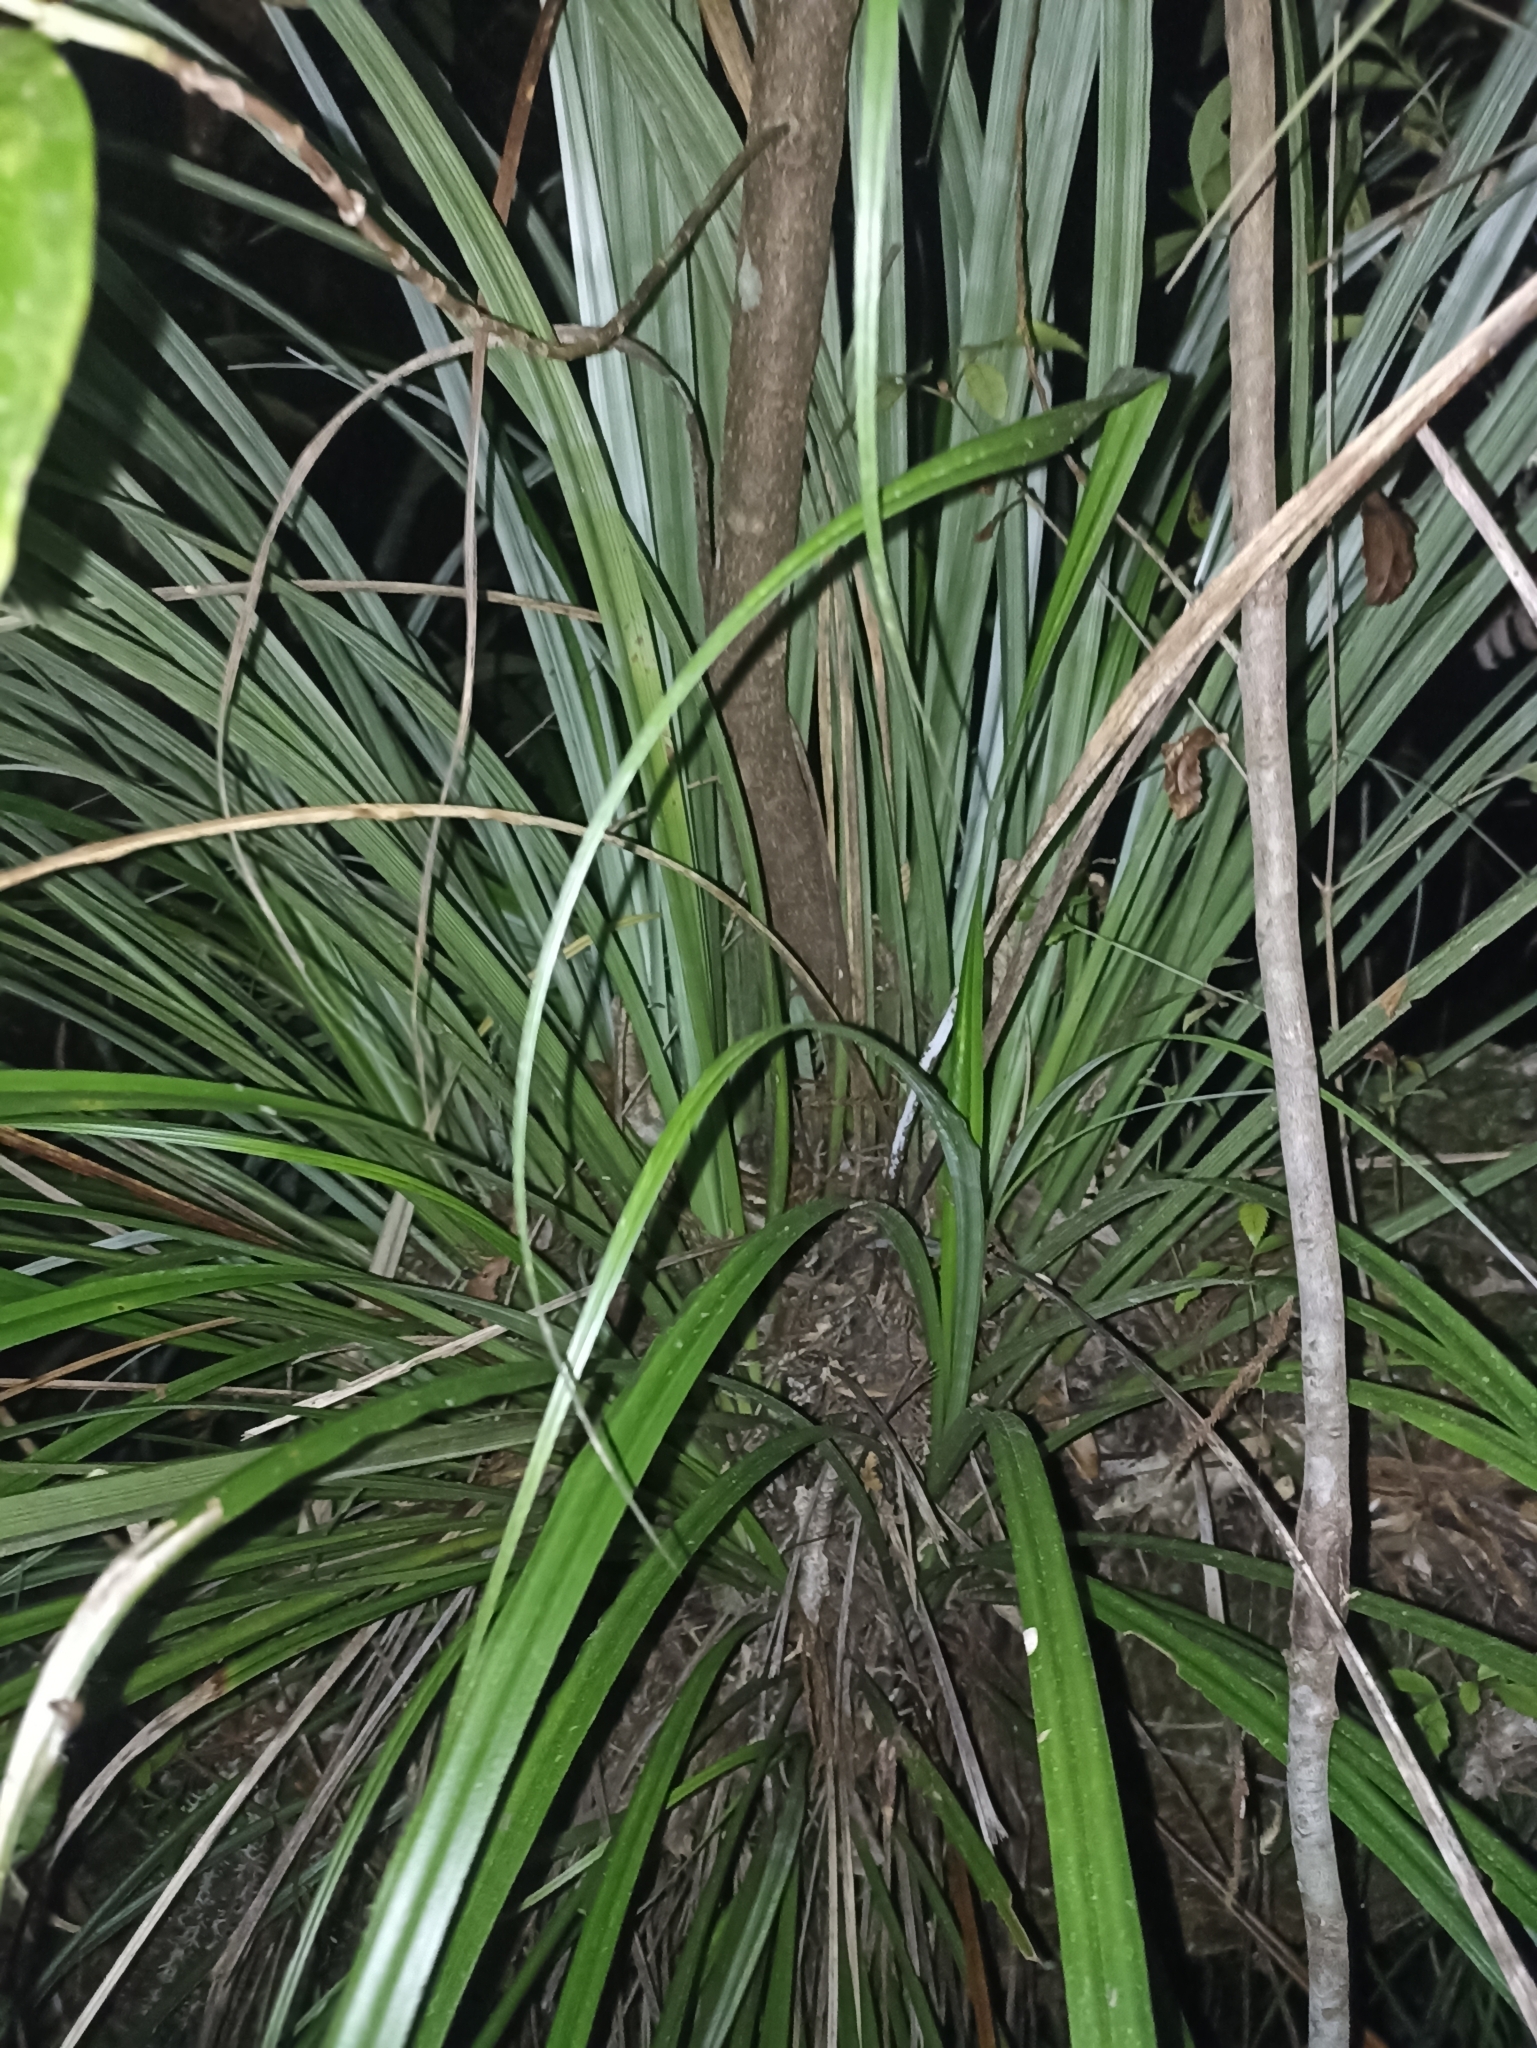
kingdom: Plantae
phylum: Tracheophyta
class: Liliopsida
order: Asparagales
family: Asteliaceae
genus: Astelia
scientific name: Astelia solandri
